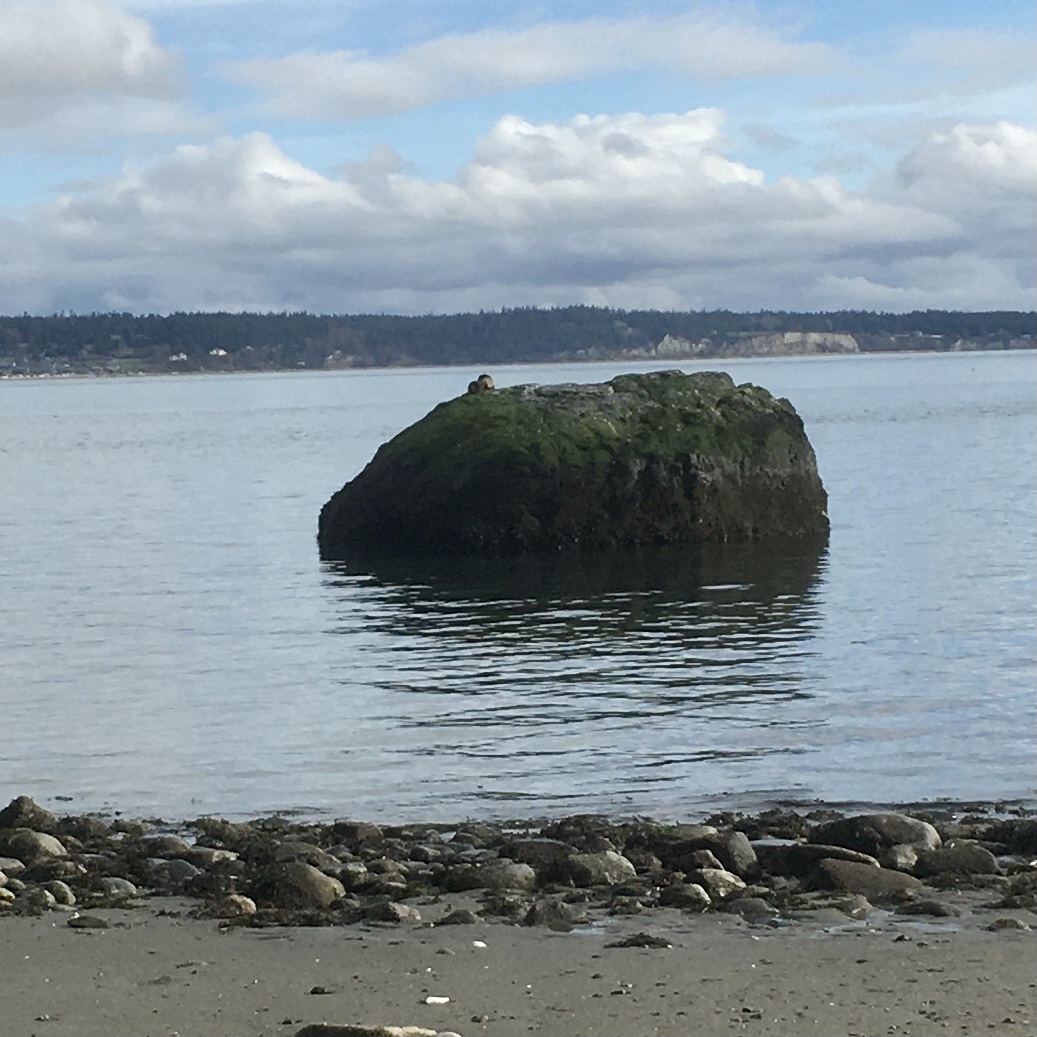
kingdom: Animalia
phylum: Chordata
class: Mammalia
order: Carnivora
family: Mustelidae
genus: Lontra
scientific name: Lontra canadensis
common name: North american river otter
